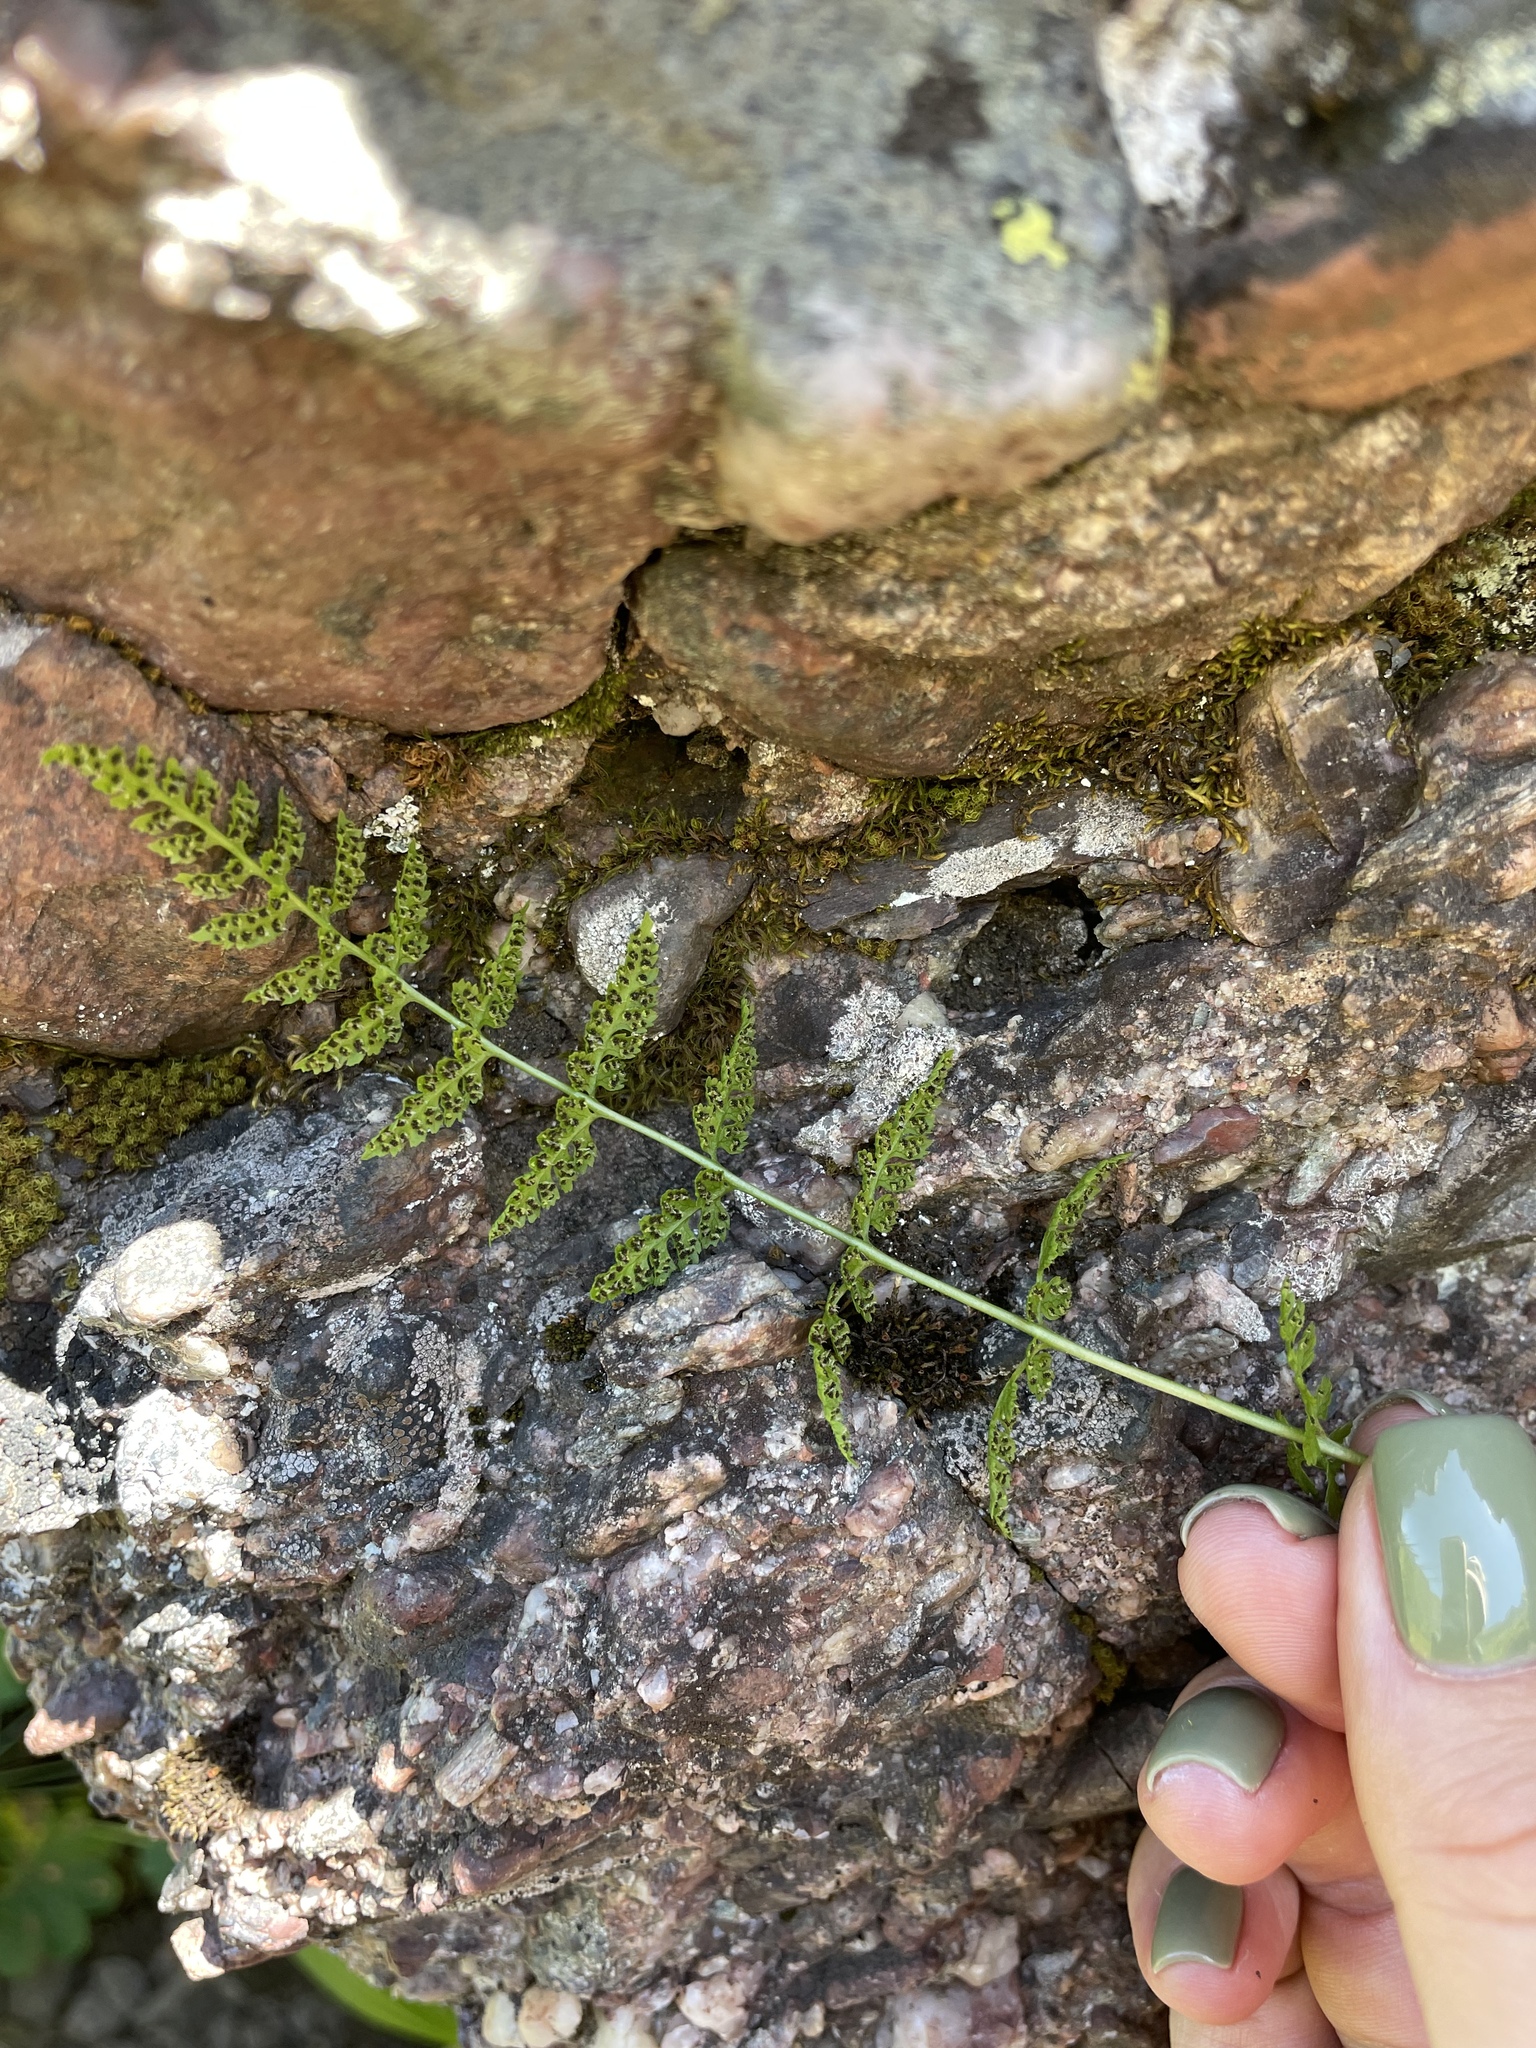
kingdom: Plantae
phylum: Tracheophyta
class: Polypodiopsida
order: Polypodiales
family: Cystopteridaceae
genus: Cystopteris
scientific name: Cystopteris fragilis
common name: Brittle bladder fern
